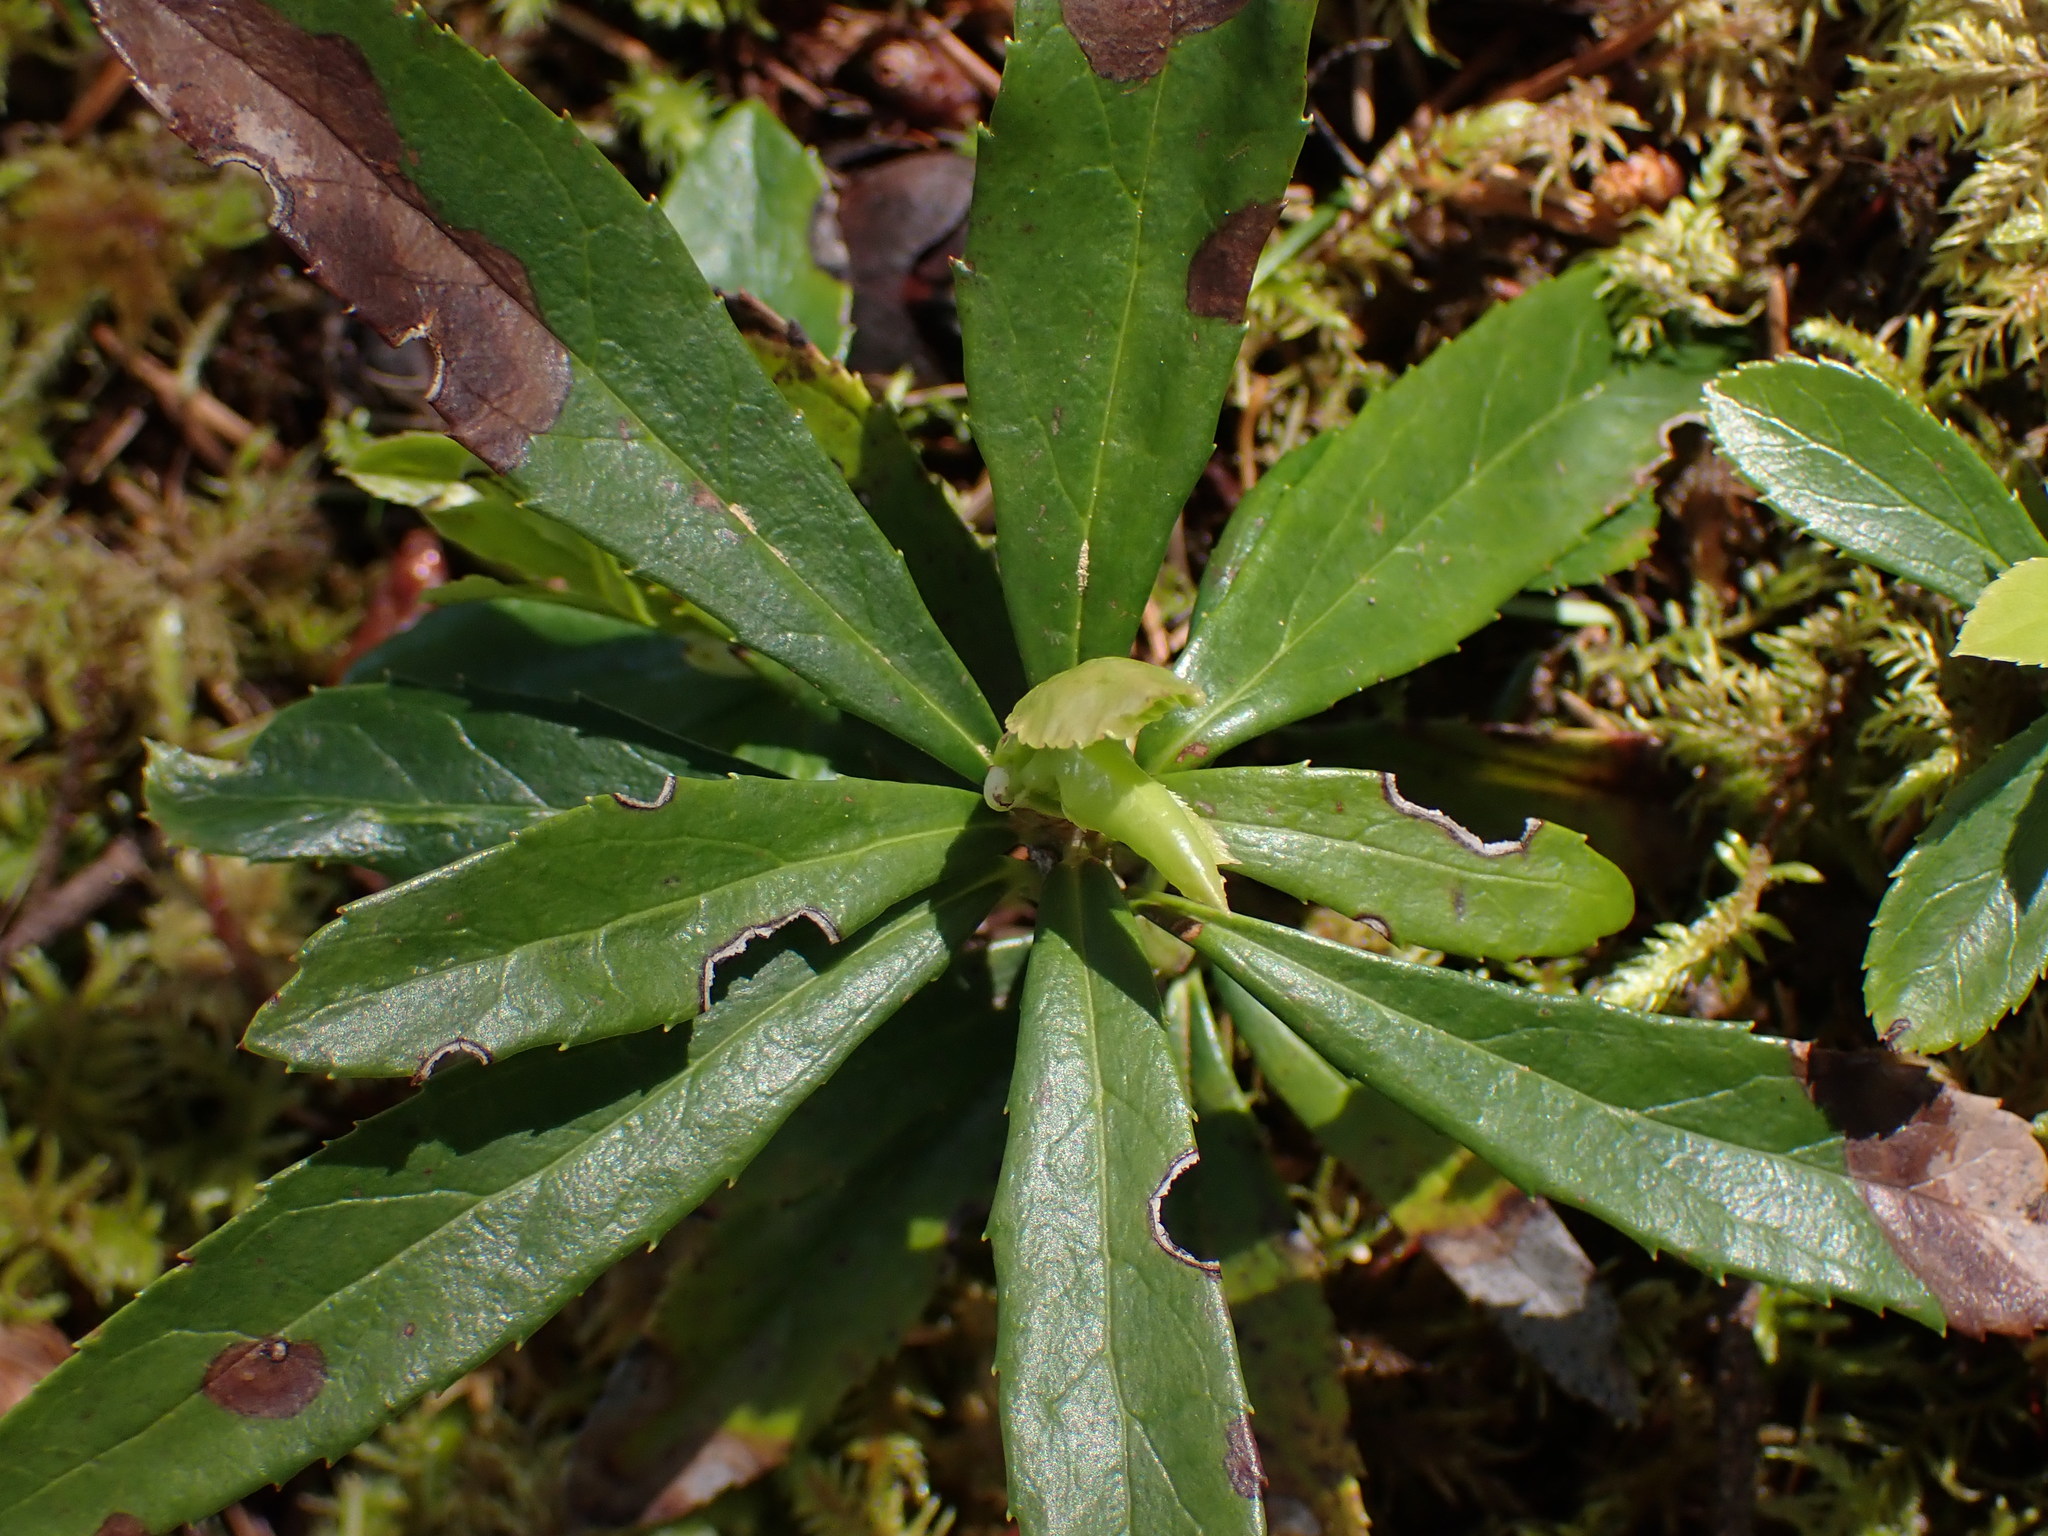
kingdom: Plantae
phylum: Tracheophyta
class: Magnoliopsida
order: Ericales
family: Ericaceae
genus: Chimaphila
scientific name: Chimaphila umbellata
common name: Pipsissewa
